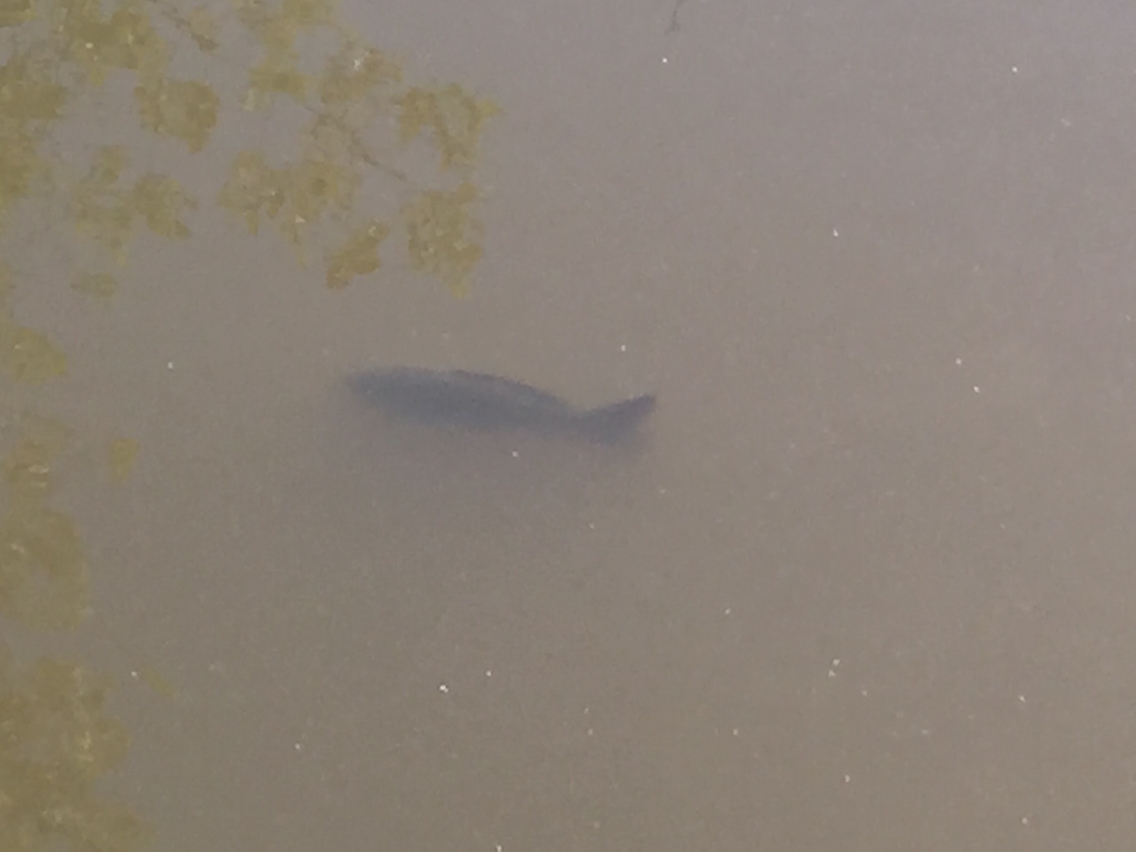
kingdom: Animalia
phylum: Chordata
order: Cypriniformes
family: Cyprinidae
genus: Cyprinus
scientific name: Cyprinus carpio
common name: Common carp
